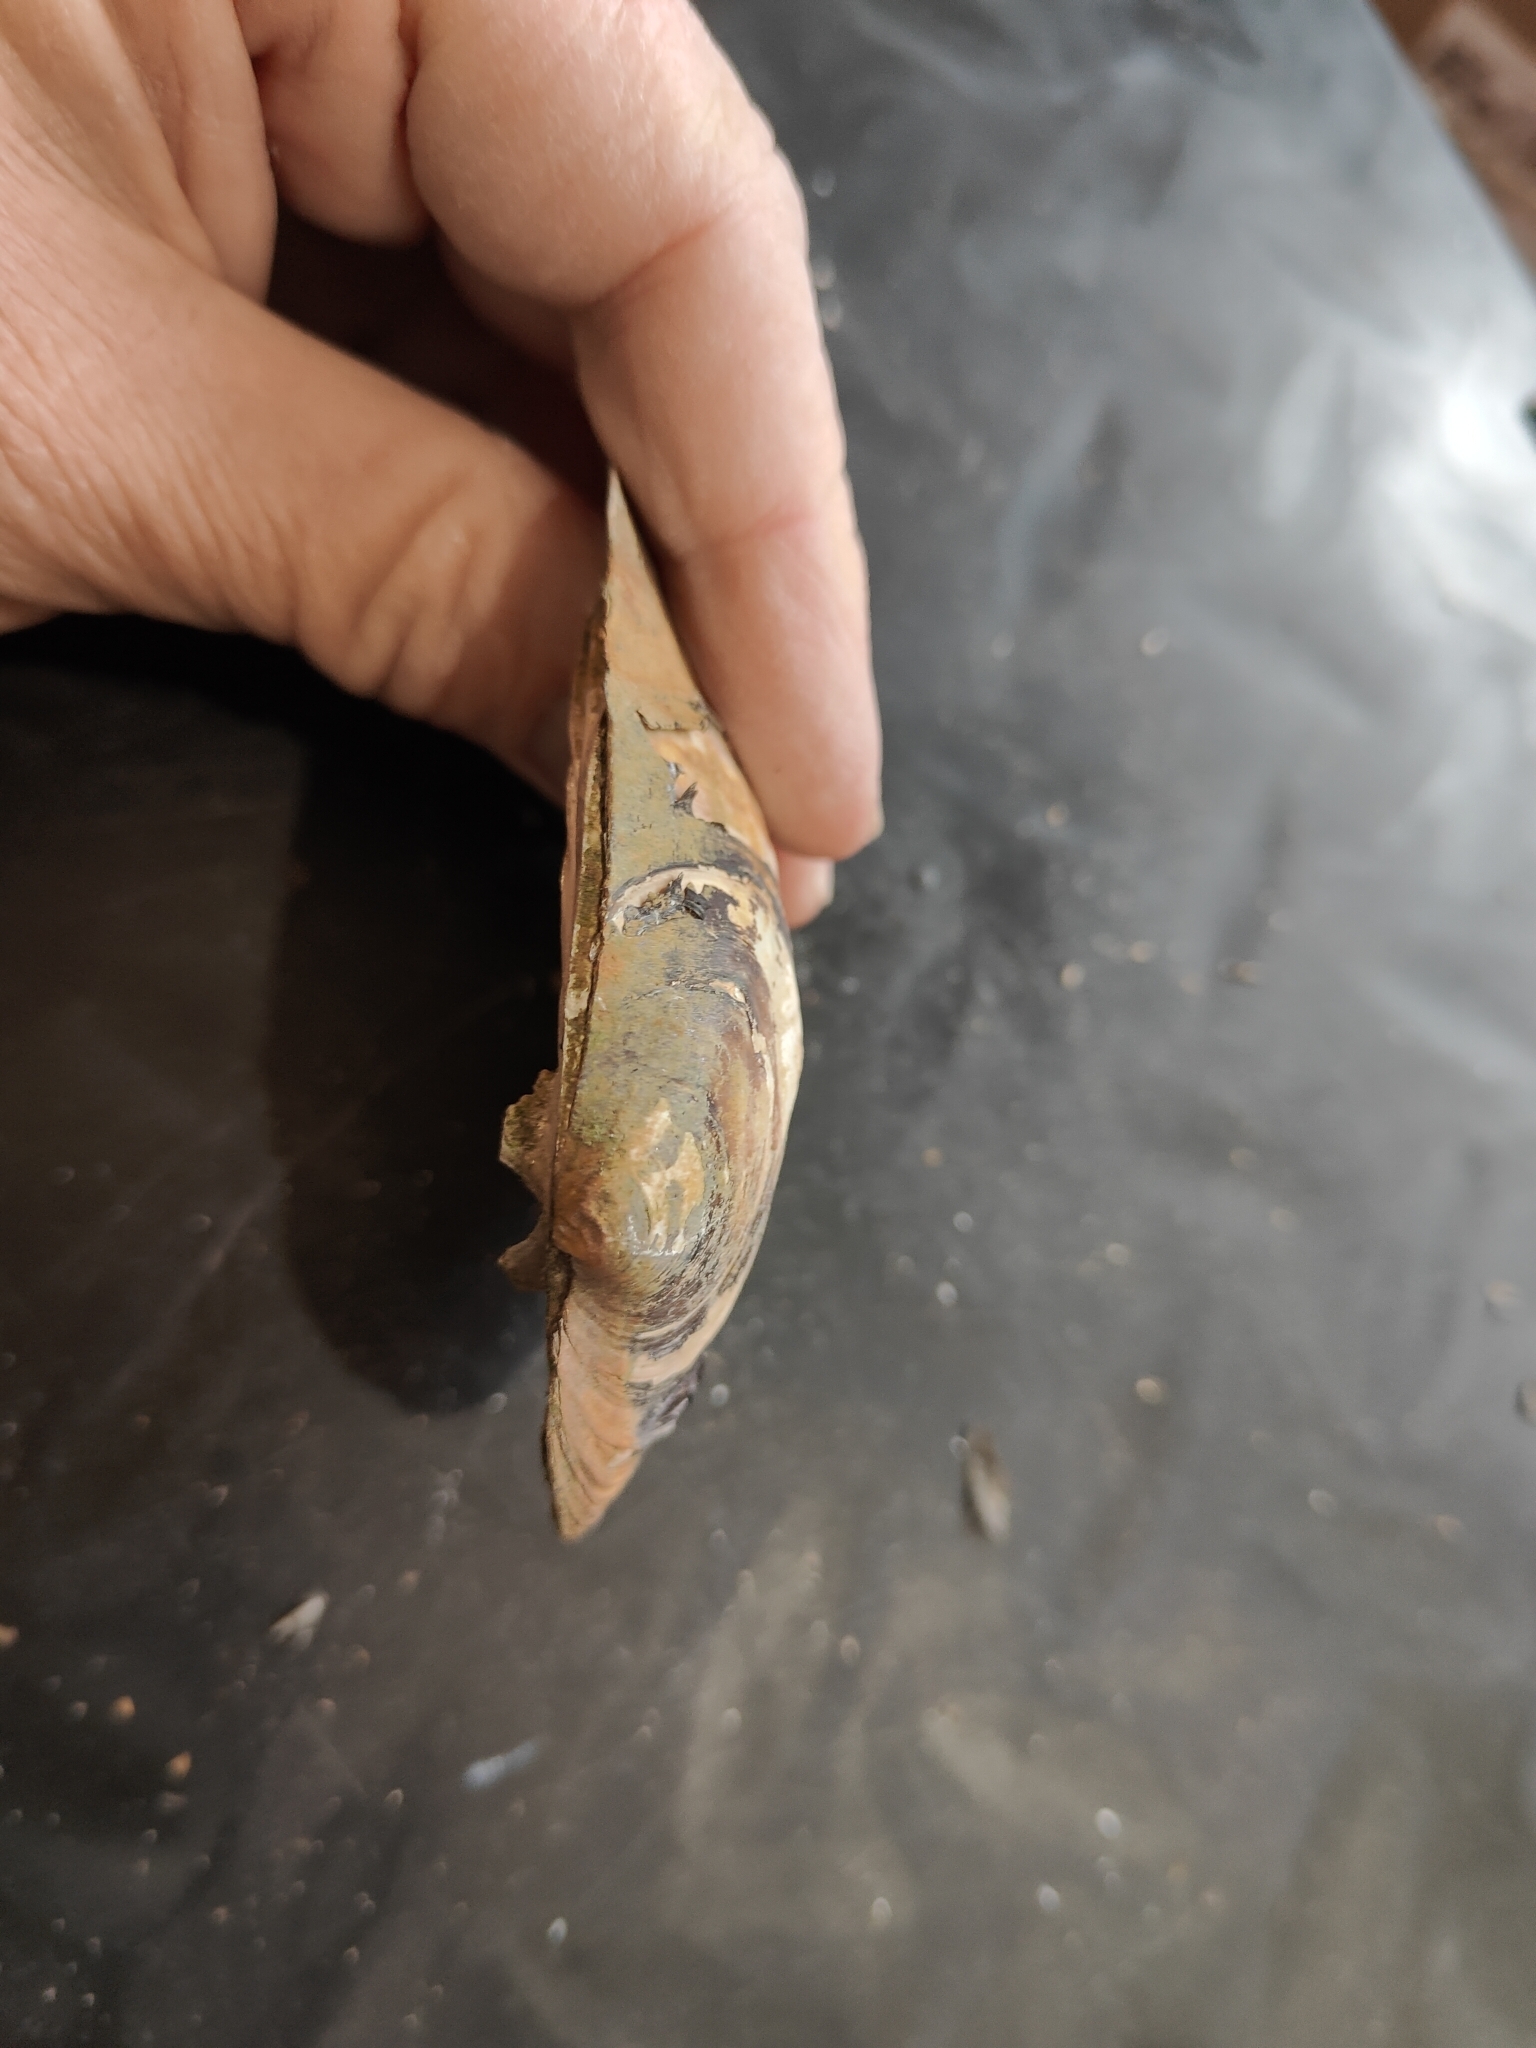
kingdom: Animalia
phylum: Mollusca
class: Bivalvia
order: Unionida
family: Unionidae
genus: Amblema
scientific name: Amblema plicata
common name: Threeridge
